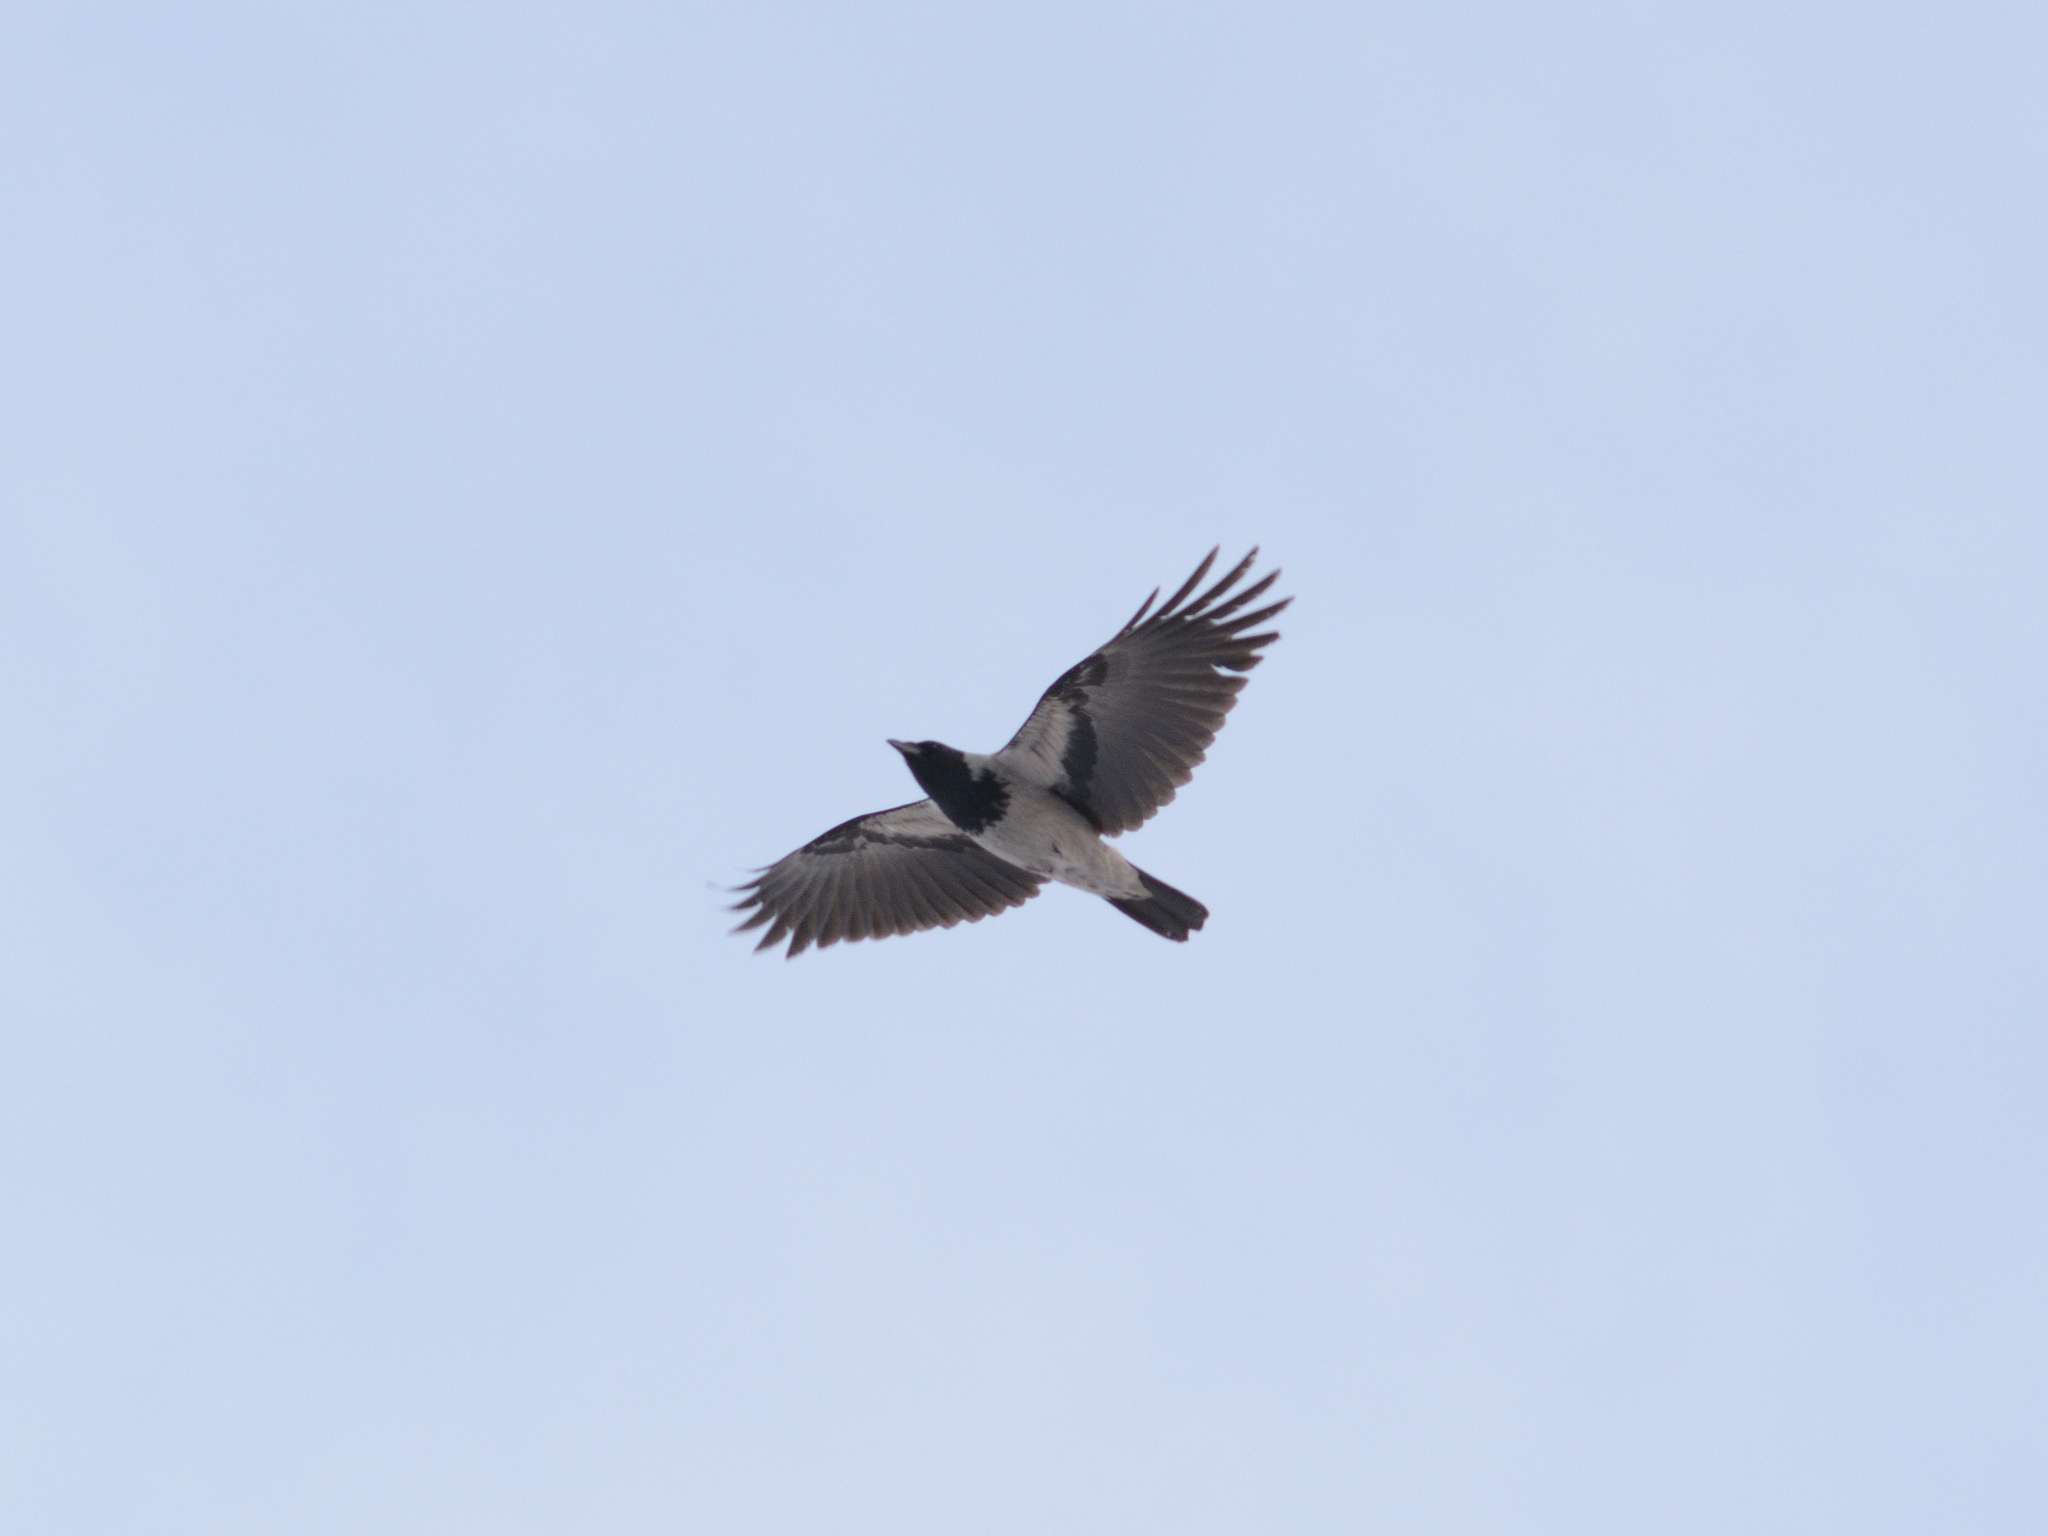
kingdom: Animalia
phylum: Chordata
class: Aves
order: Passeriformes
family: Corvidae
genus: Corvus
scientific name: Corvus cornix
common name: Hooded crow
